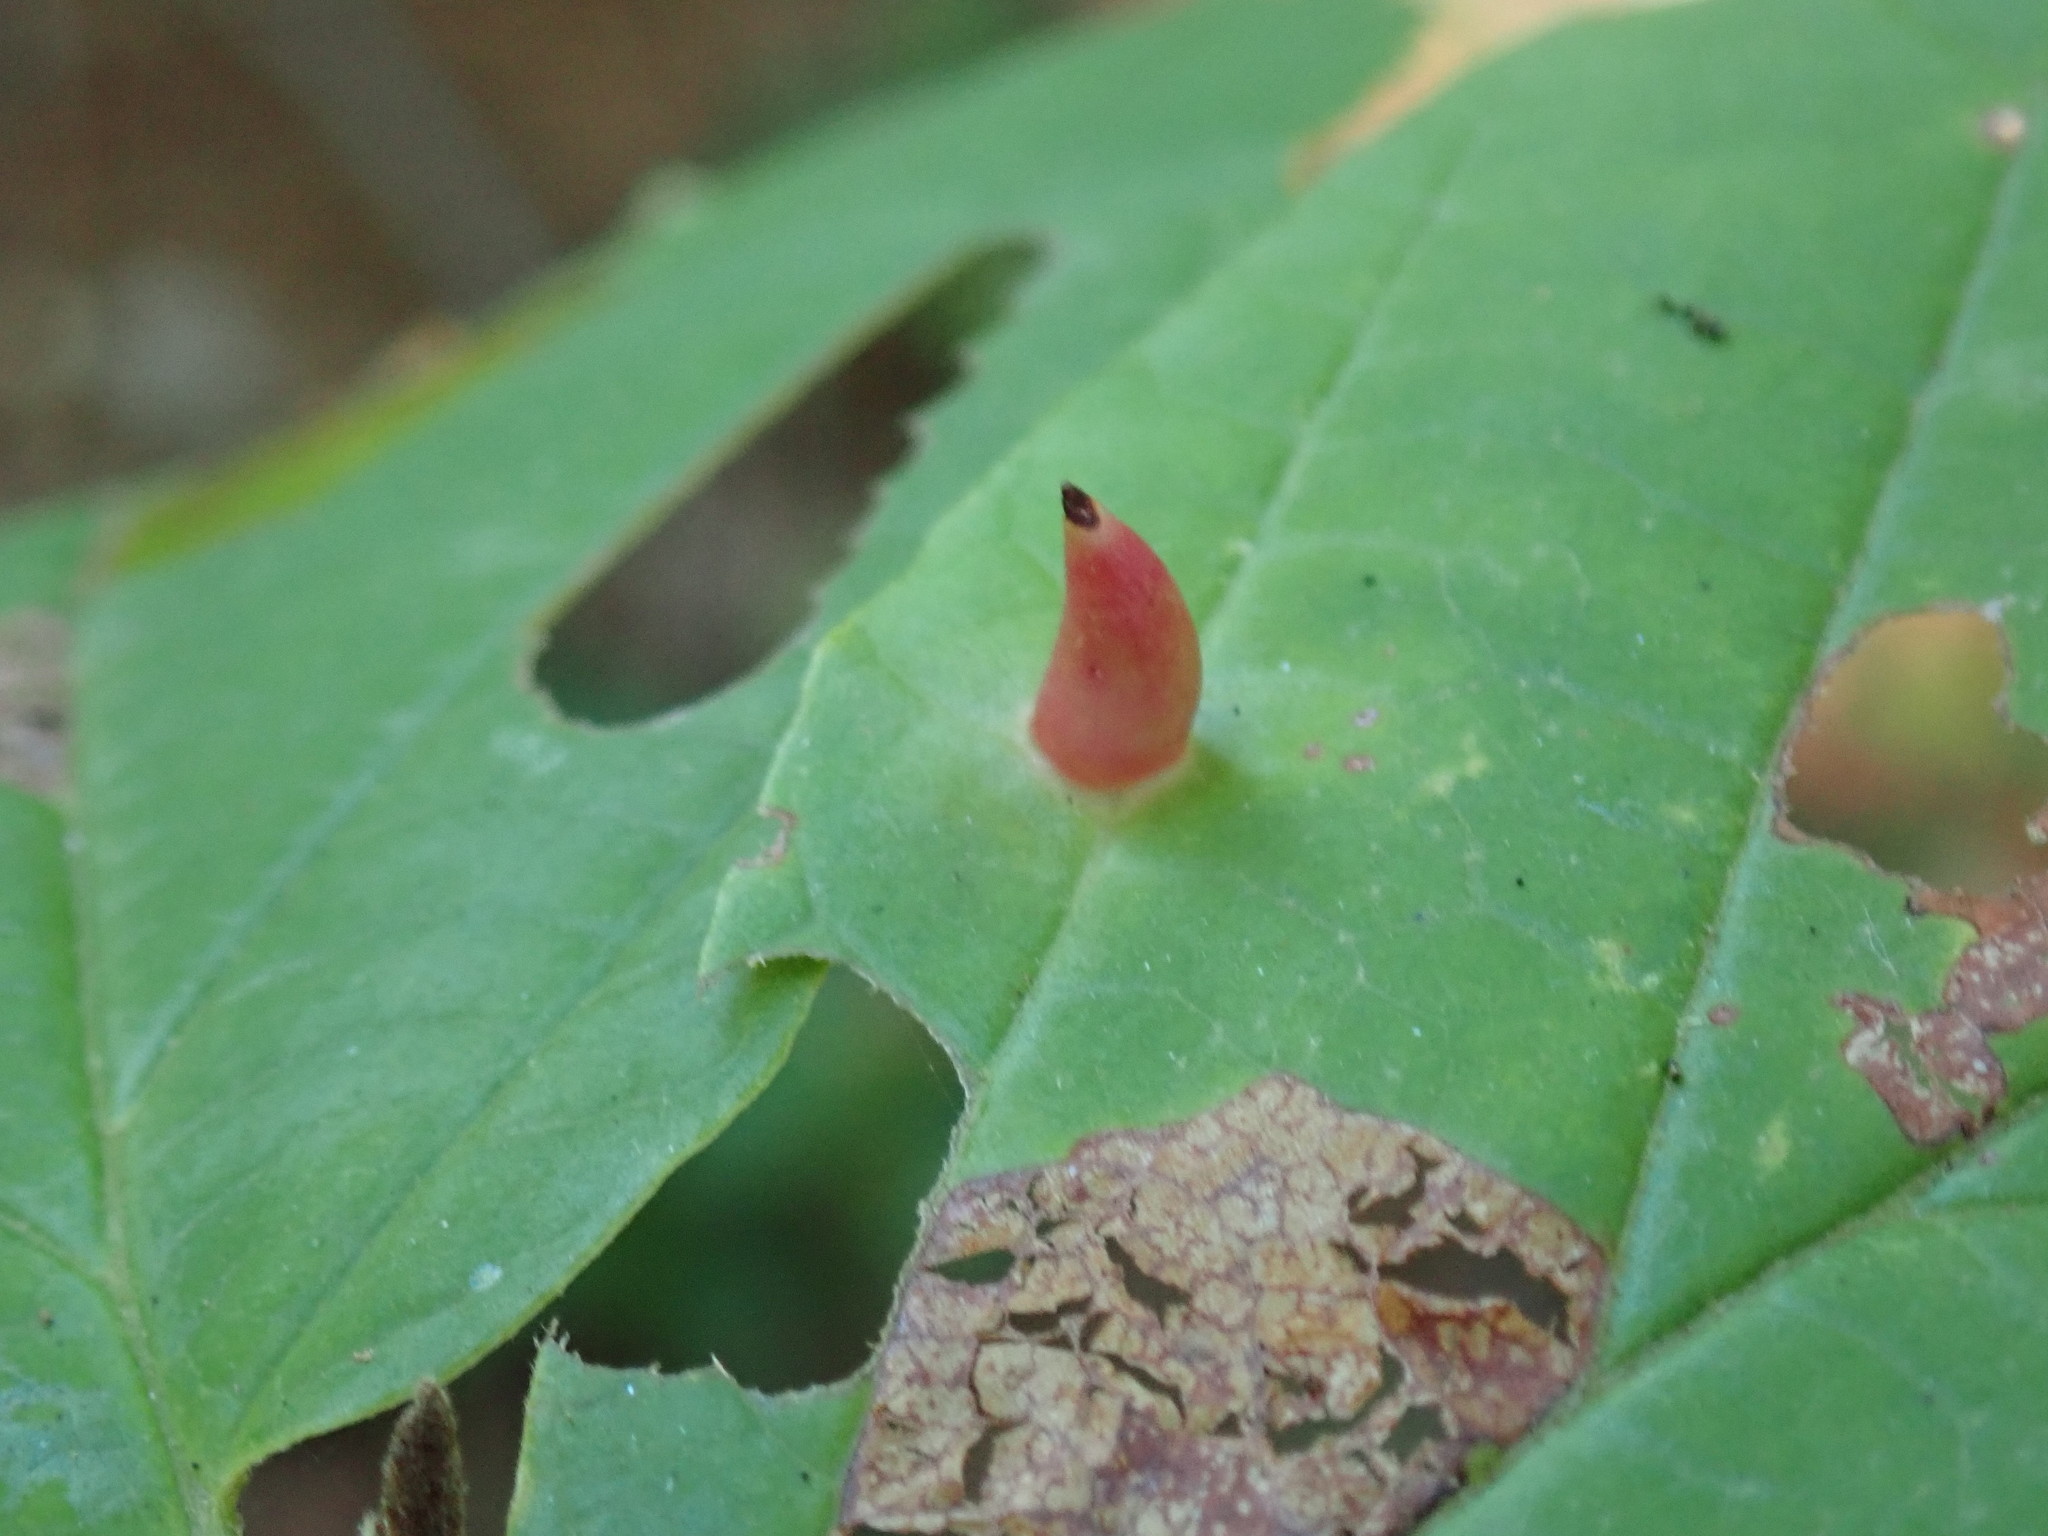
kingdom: Animalia
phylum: Arthropoda
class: Insecta
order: Hemiptera
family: Aphididae
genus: Hormaphis
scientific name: Hormaphis hamamelidis
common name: Witch-hazel cone gall aphid
